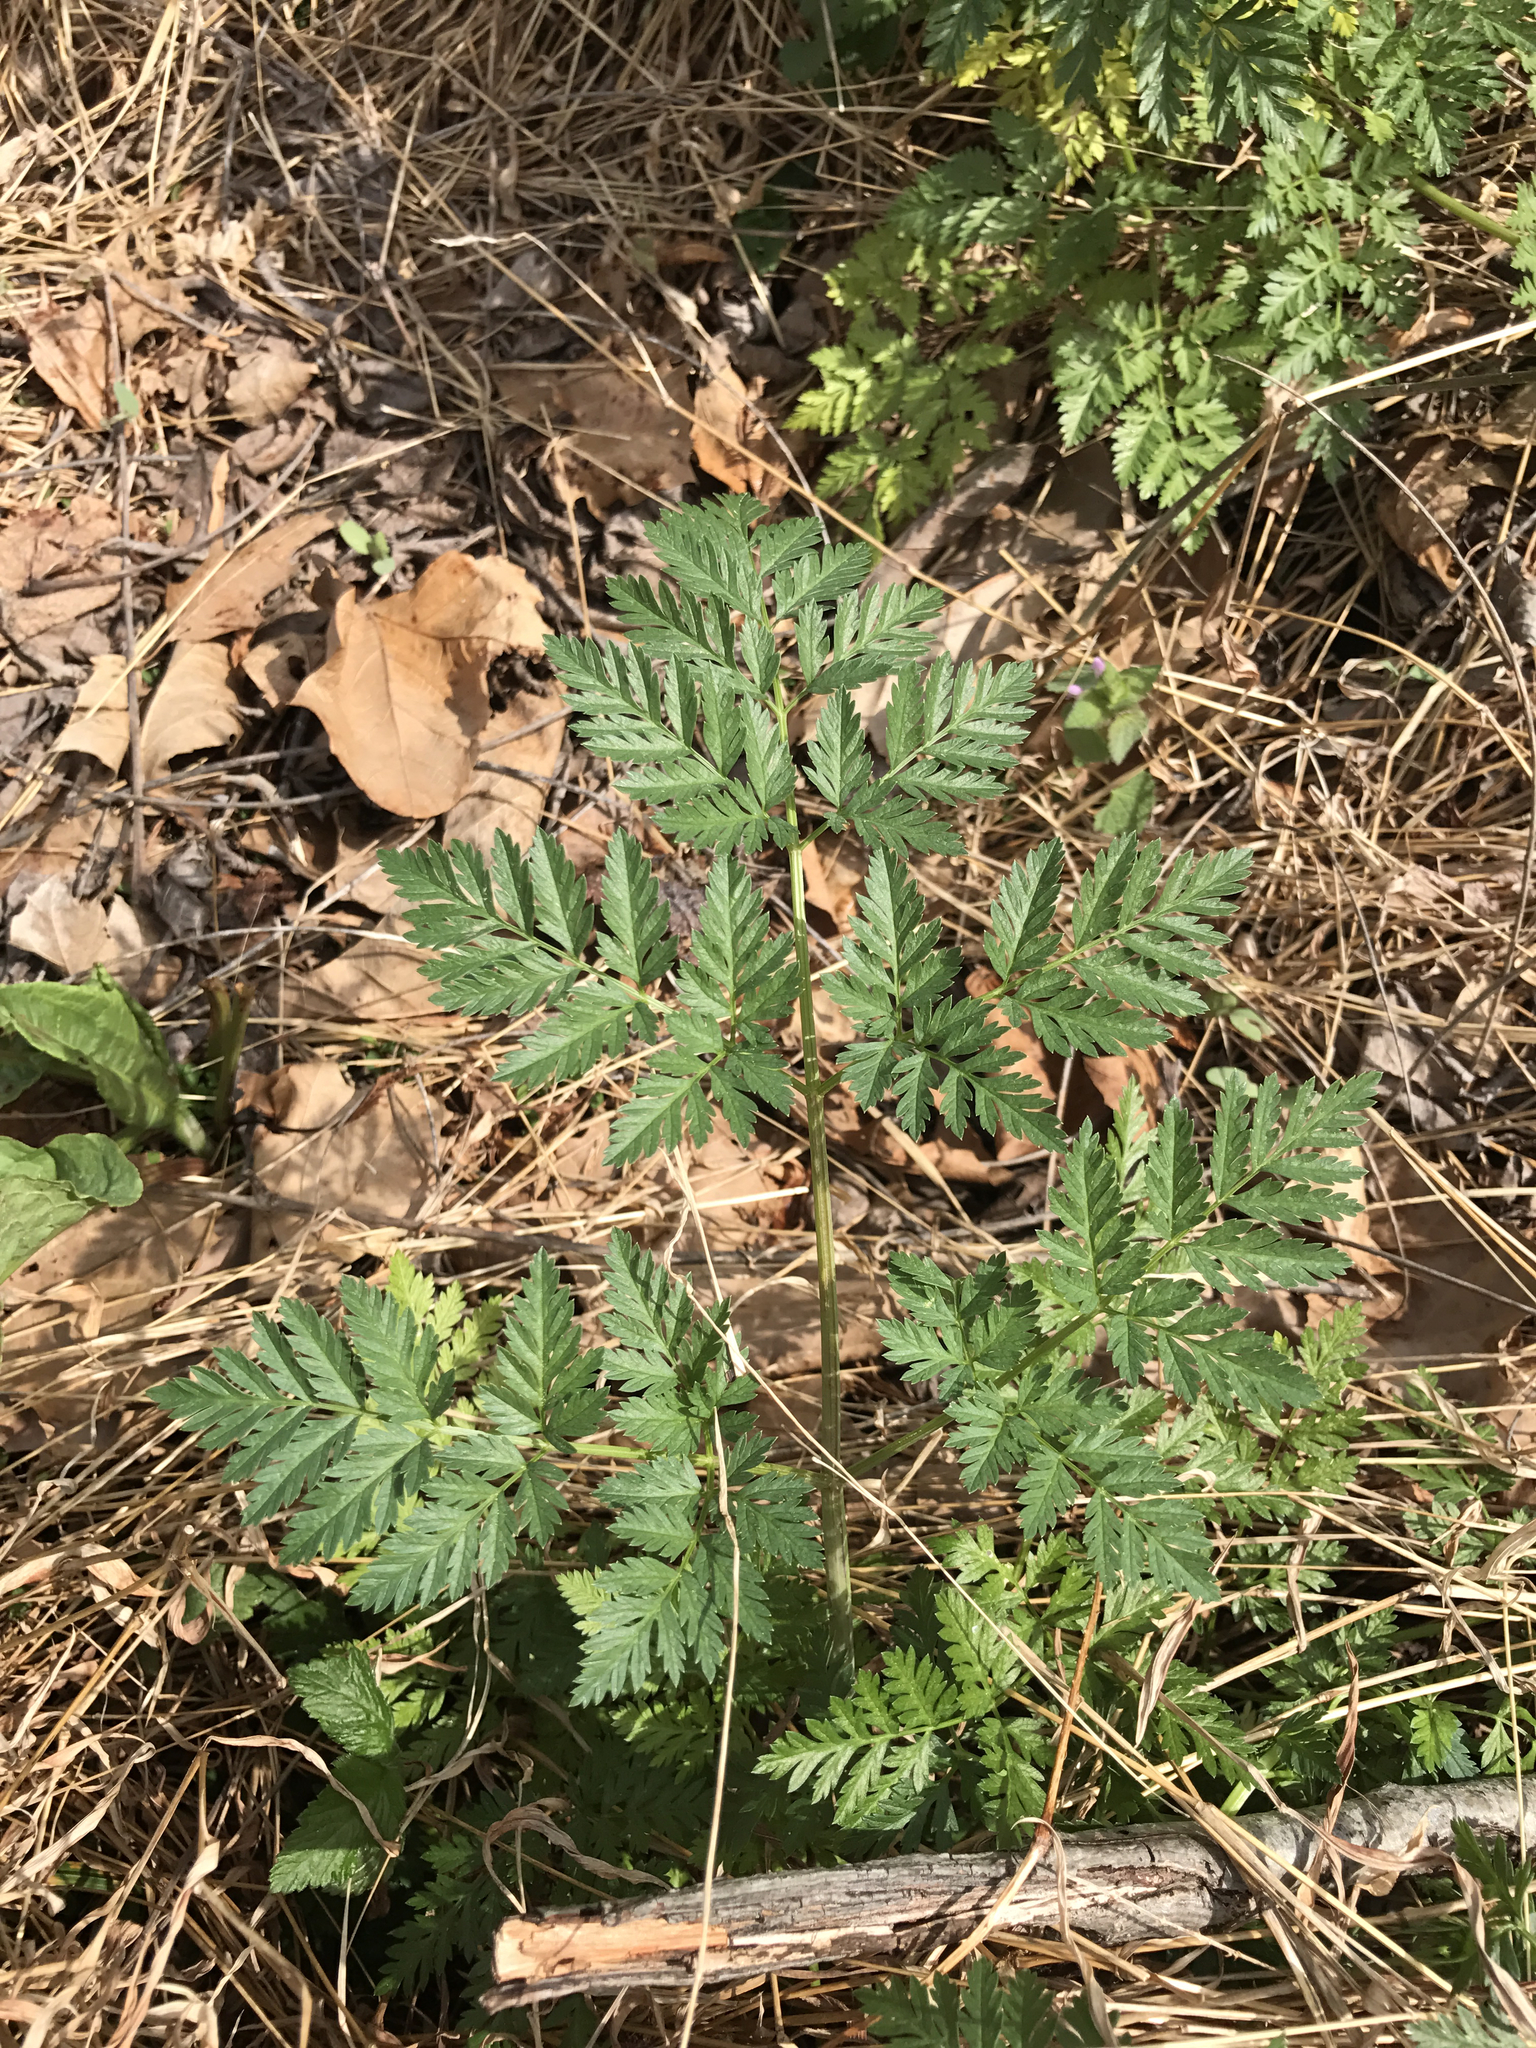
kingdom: Plantae
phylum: Tracheophyta
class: Magnoliopsida
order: Apiales
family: Apiaceae
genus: Conium
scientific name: Conium maculatum
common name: Hemlock
